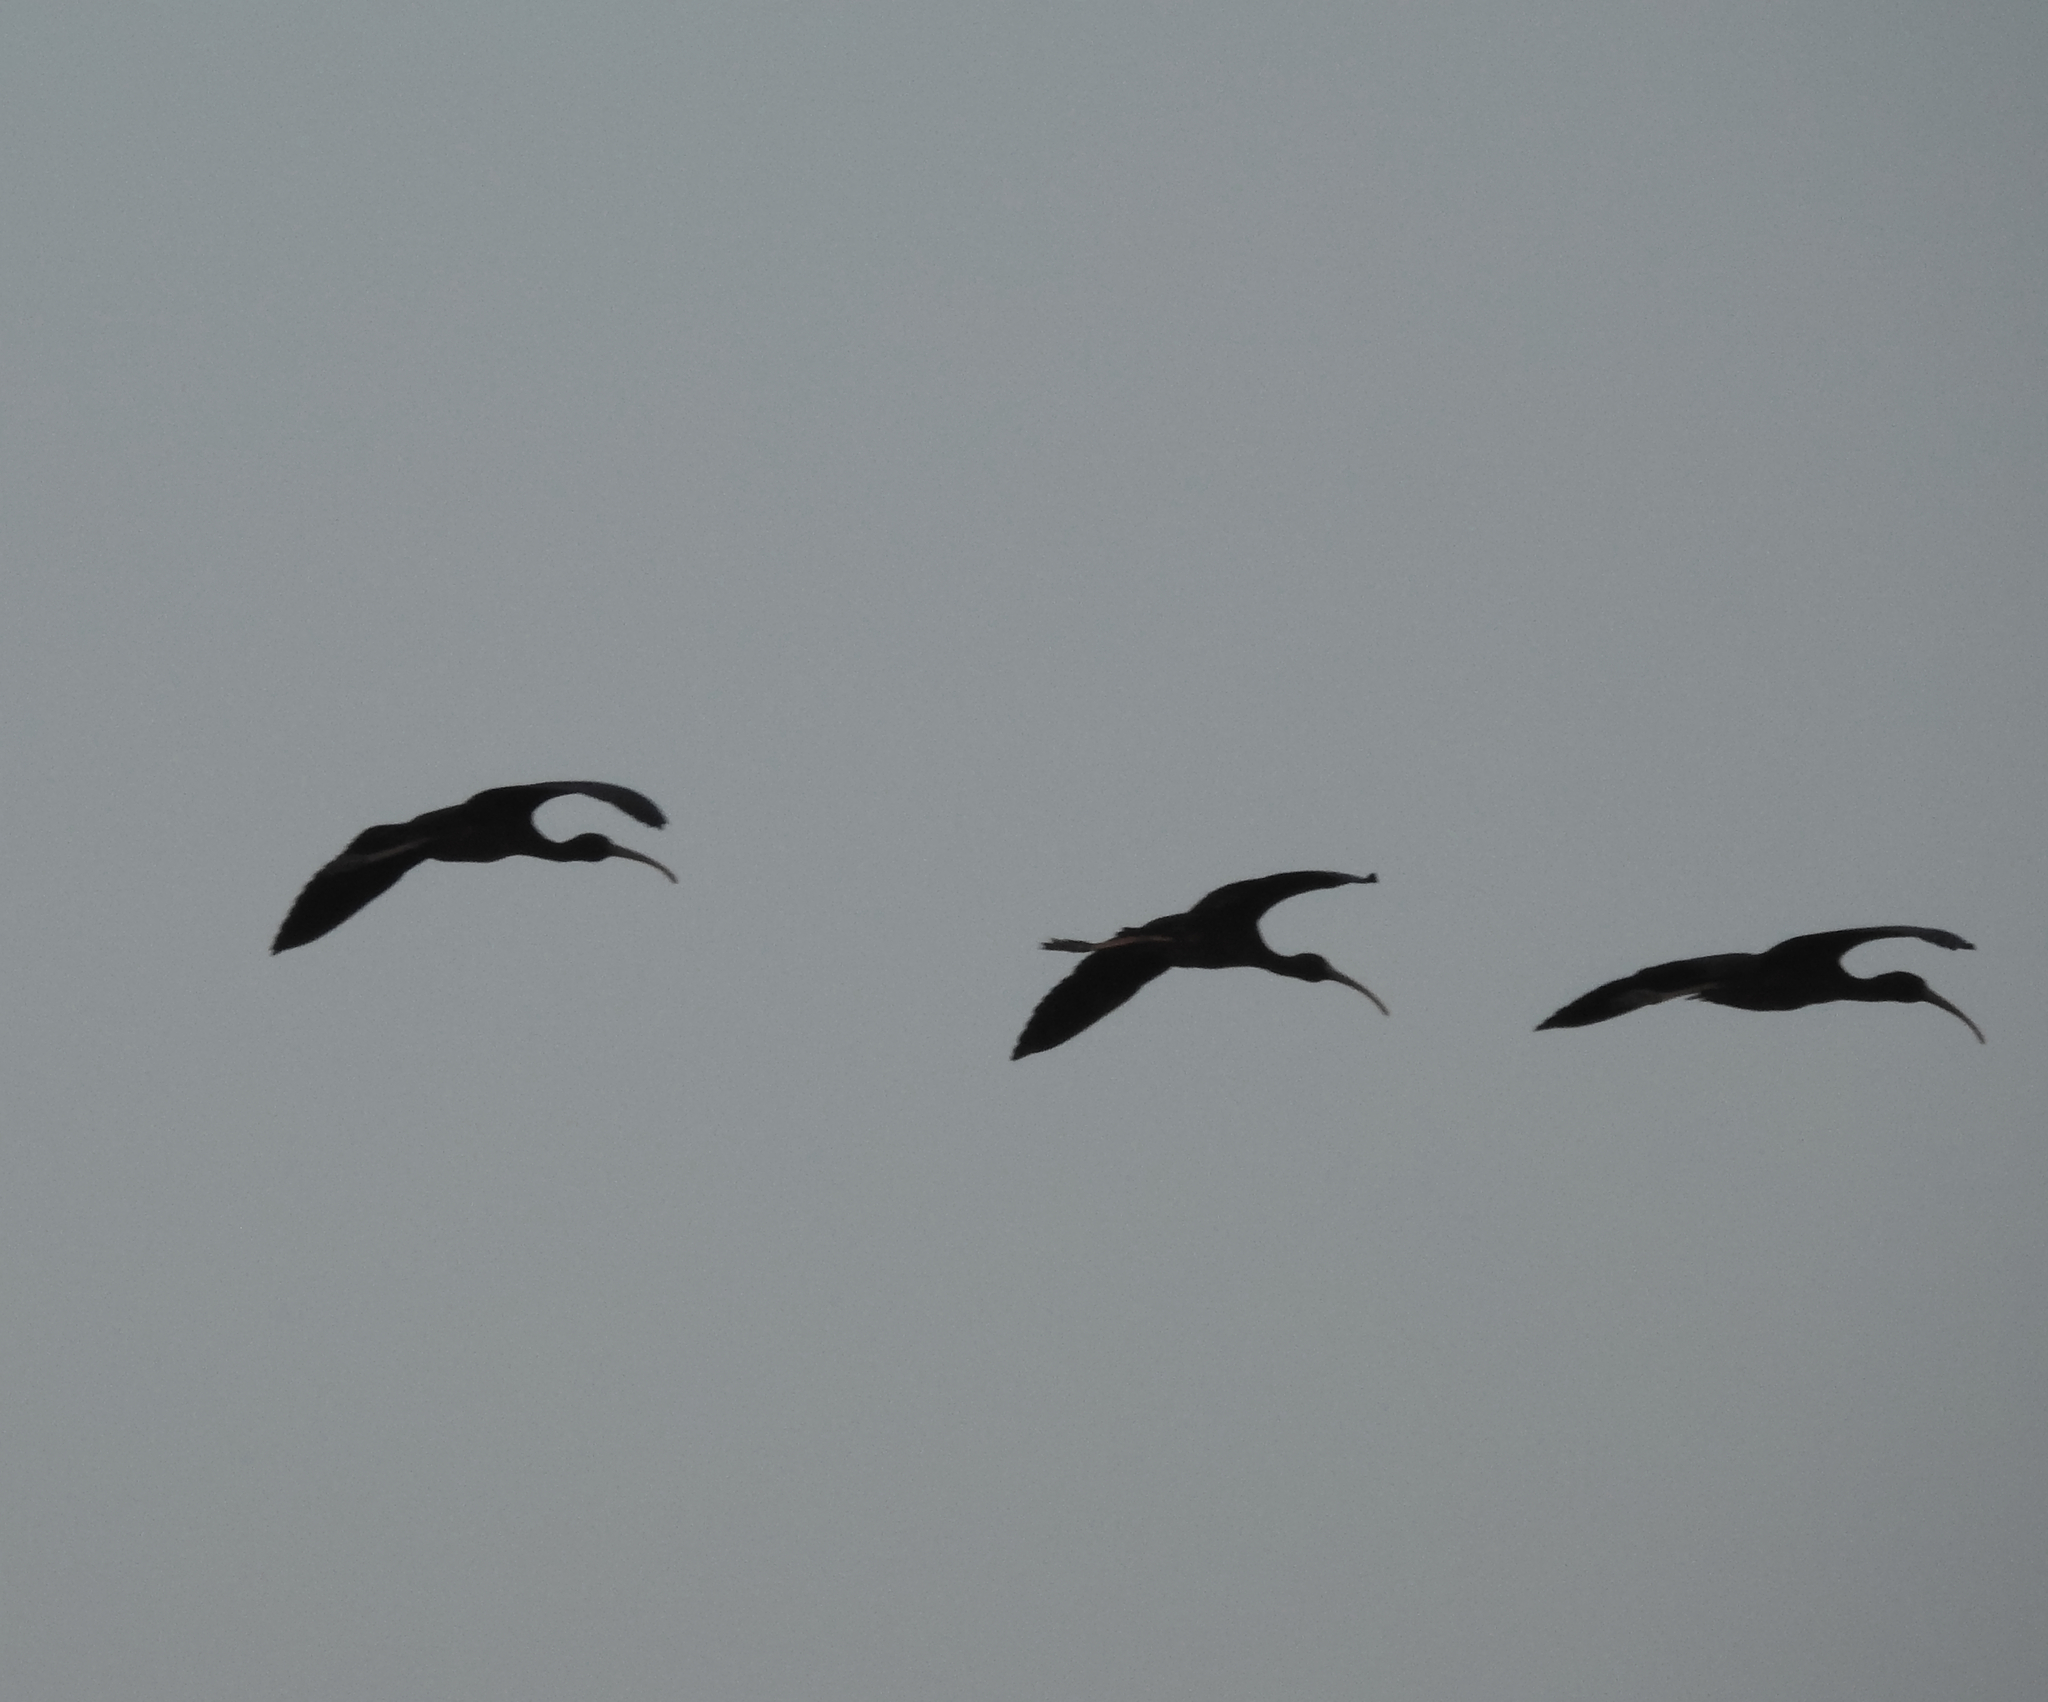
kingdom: Animalia
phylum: Chordata
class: Aves
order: Pelecaniformes
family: Threskiornithidae
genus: Plegadis
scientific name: Plegadis falcinellus
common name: Glossy ibis
